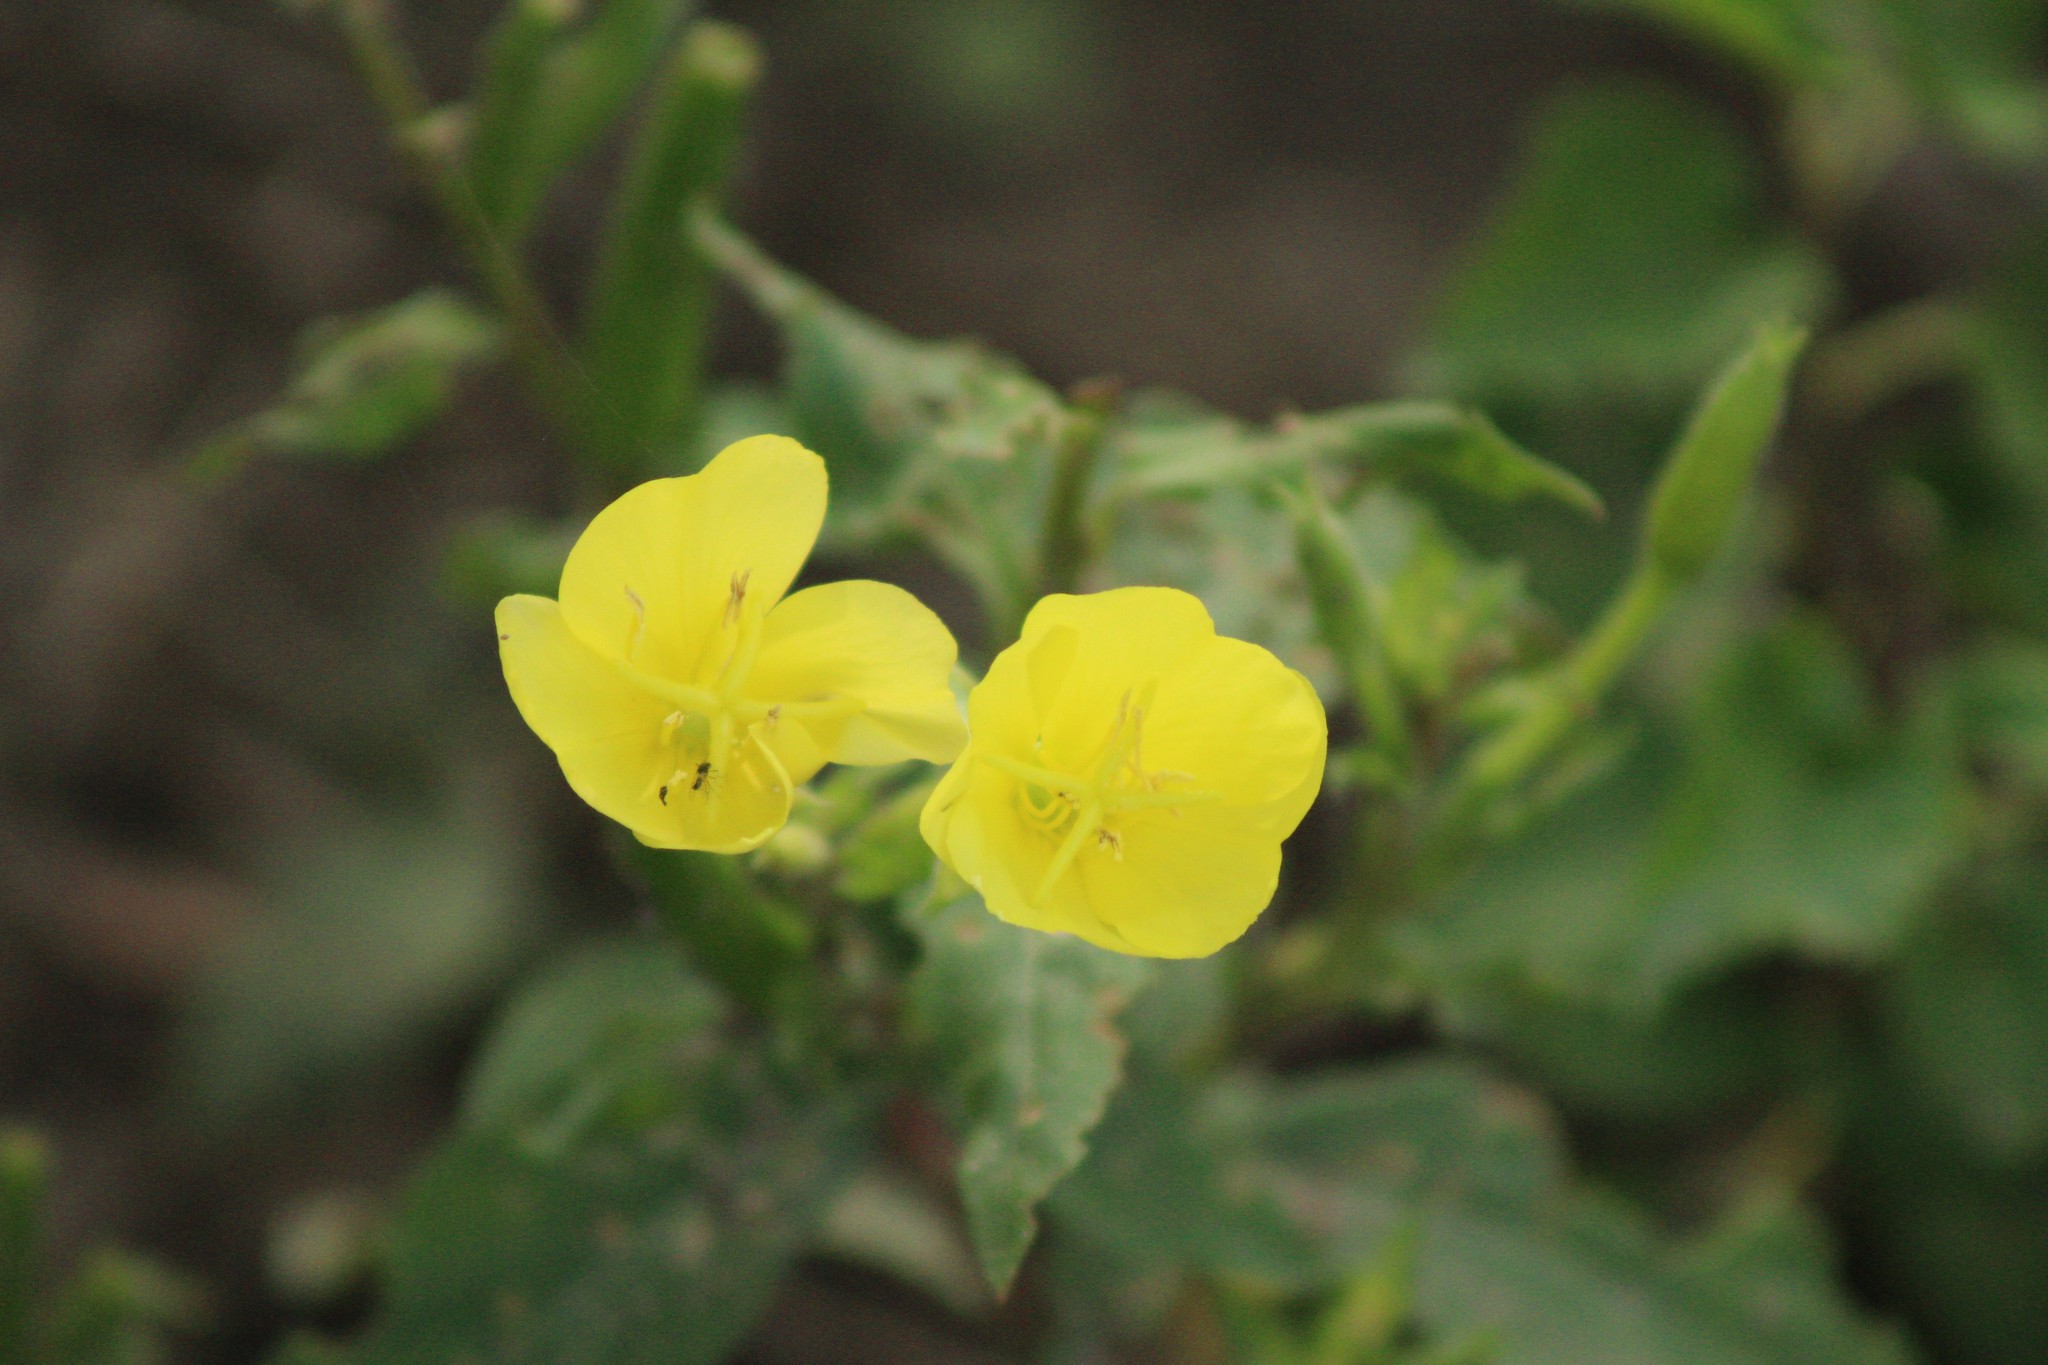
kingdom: Plantae
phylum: Tracheophyta
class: Magnoliopsida
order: Myrtales
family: Onagraceae
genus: Oenothera
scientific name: Oenothera biennis
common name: Common evening-primrose
